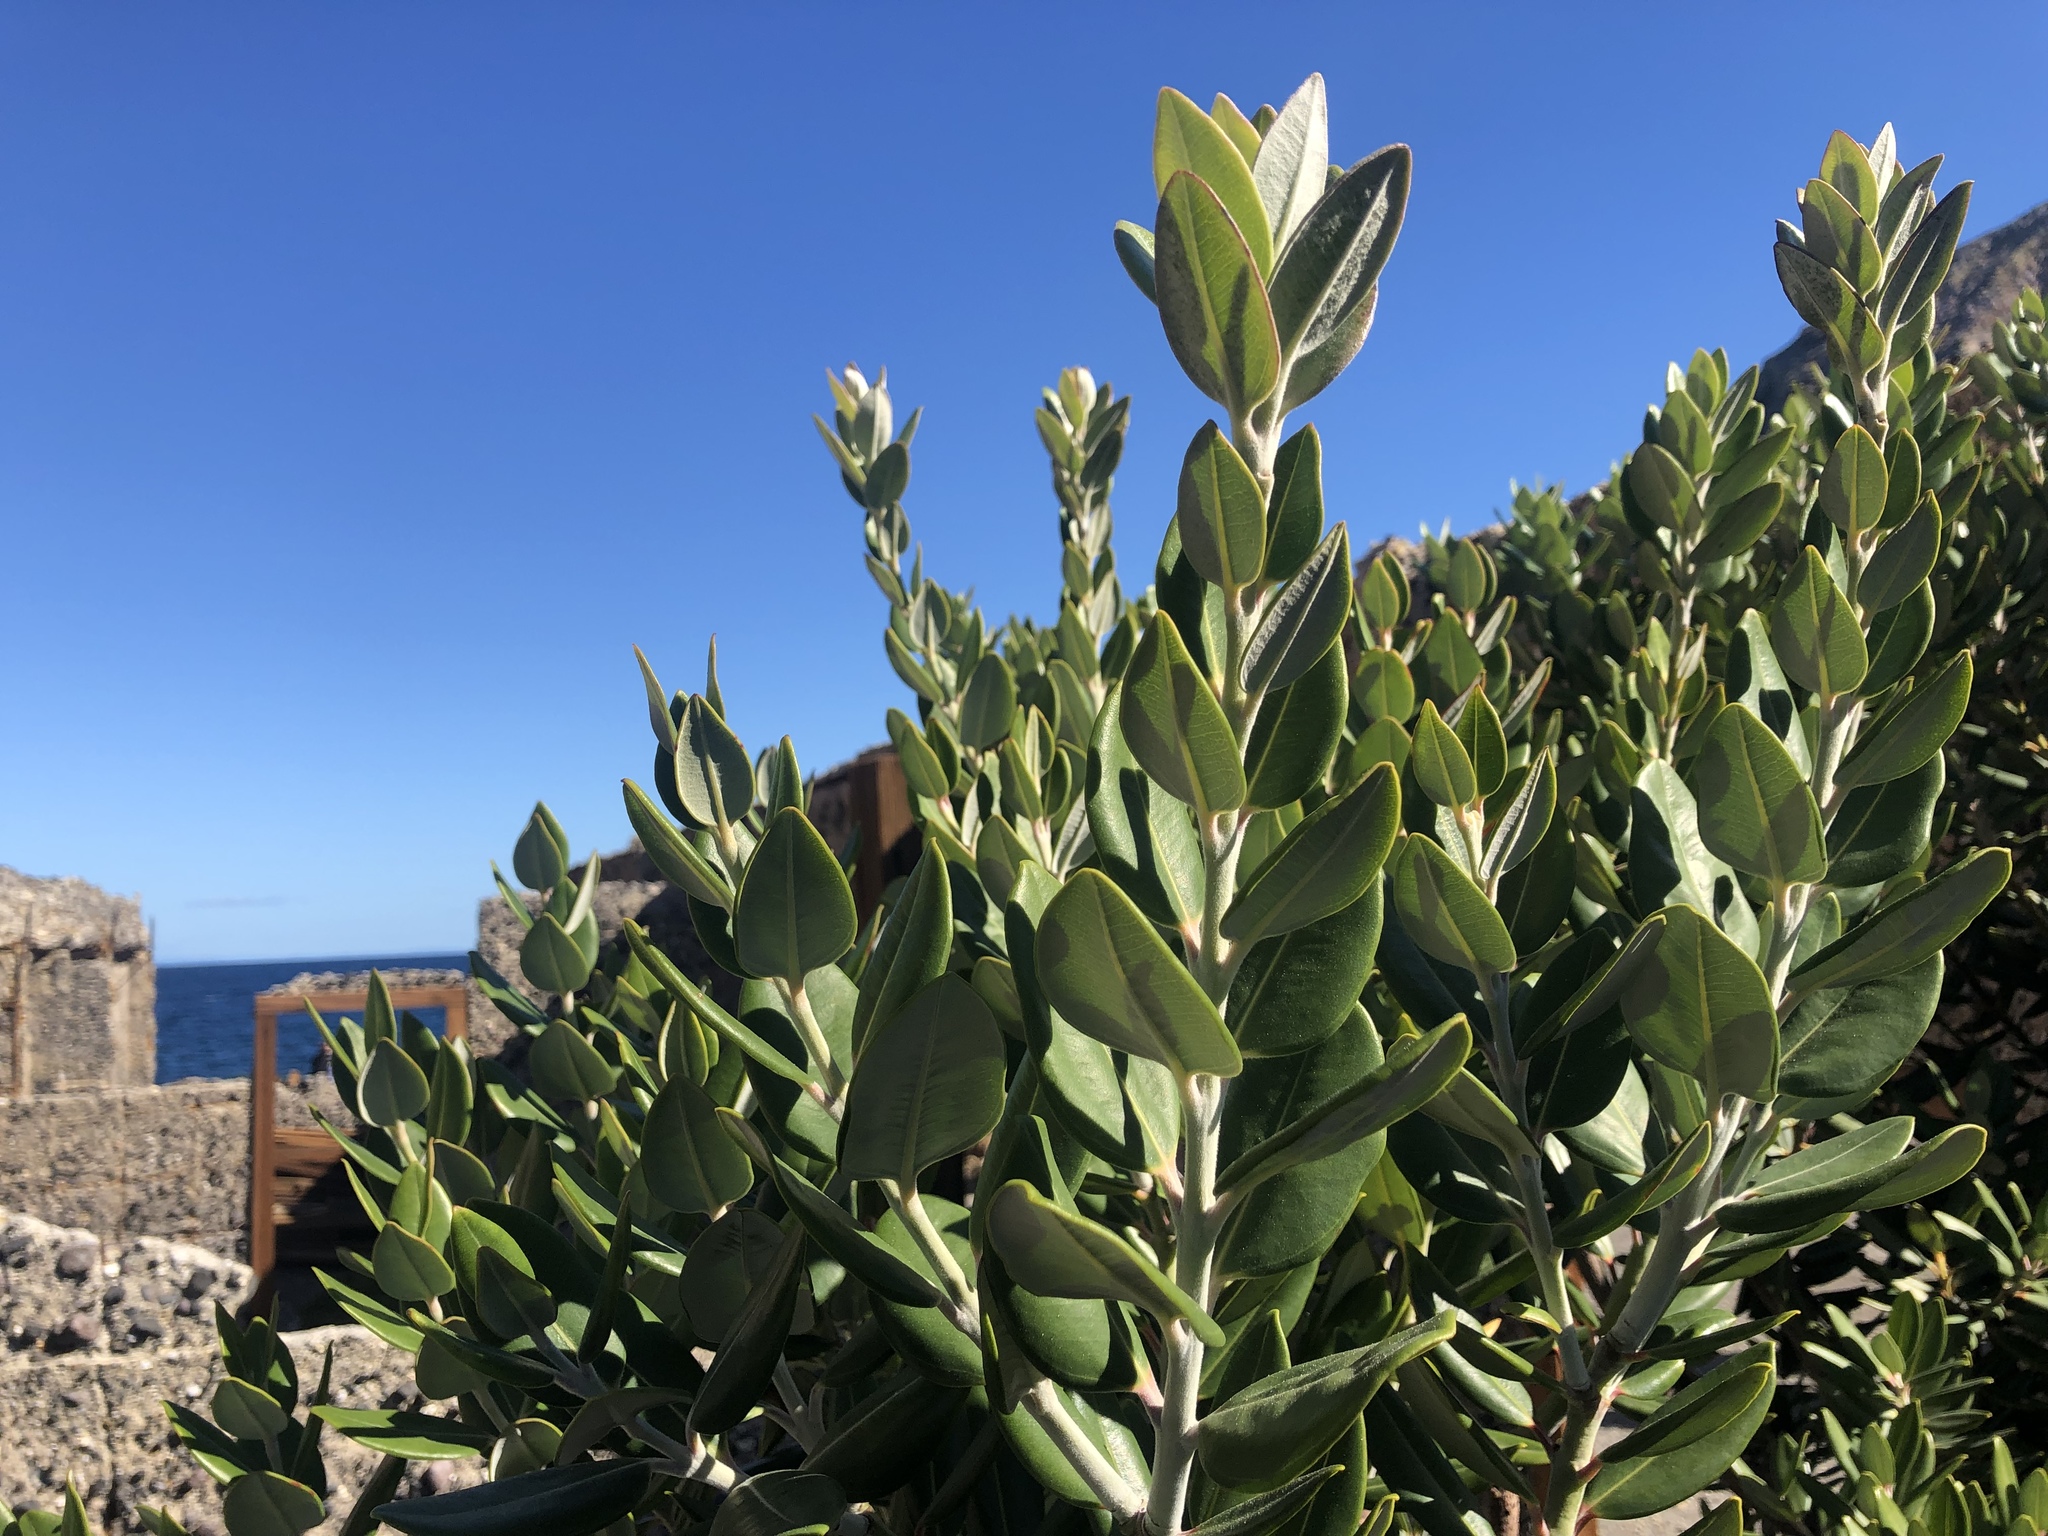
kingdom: Plantae
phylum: Tracheophyta
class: Magnoliopsida
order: Myrtales
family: Myrtaceae
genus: Metrosideros
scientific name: Metrosideros excelsa
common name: New zealand christmastree
